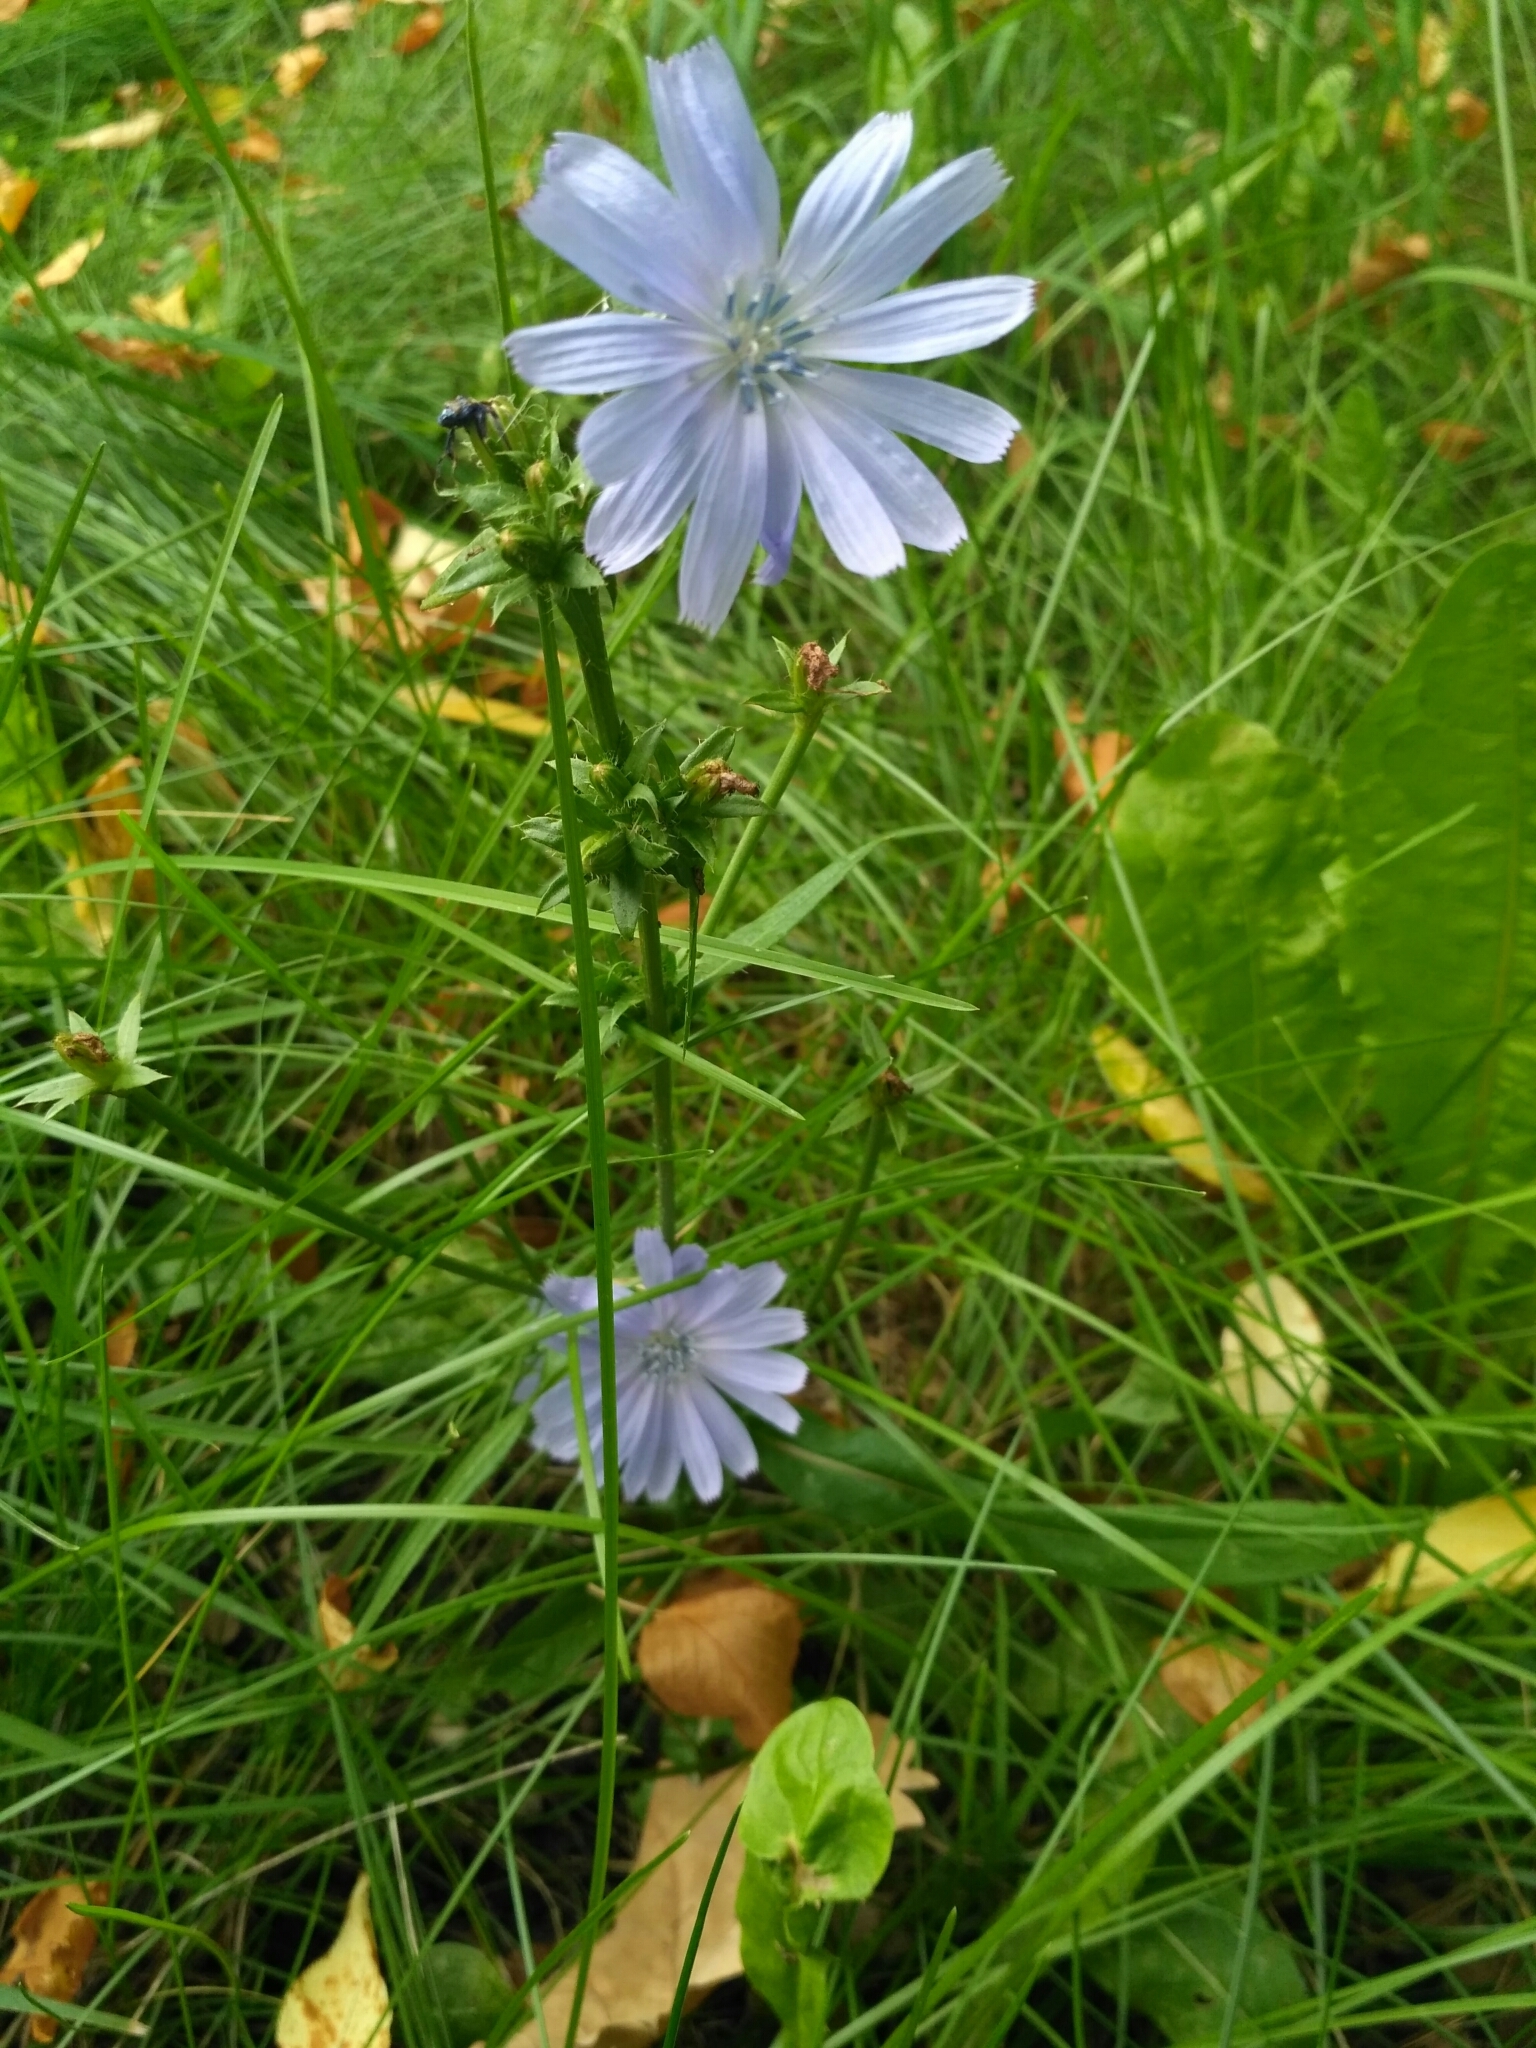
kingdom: Plantae
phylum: Tracheophyta
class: Magnoliopsida
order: Asterales
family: Asteraceae
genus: Cichorium
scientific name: Cichorium intybus
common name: Chicory
